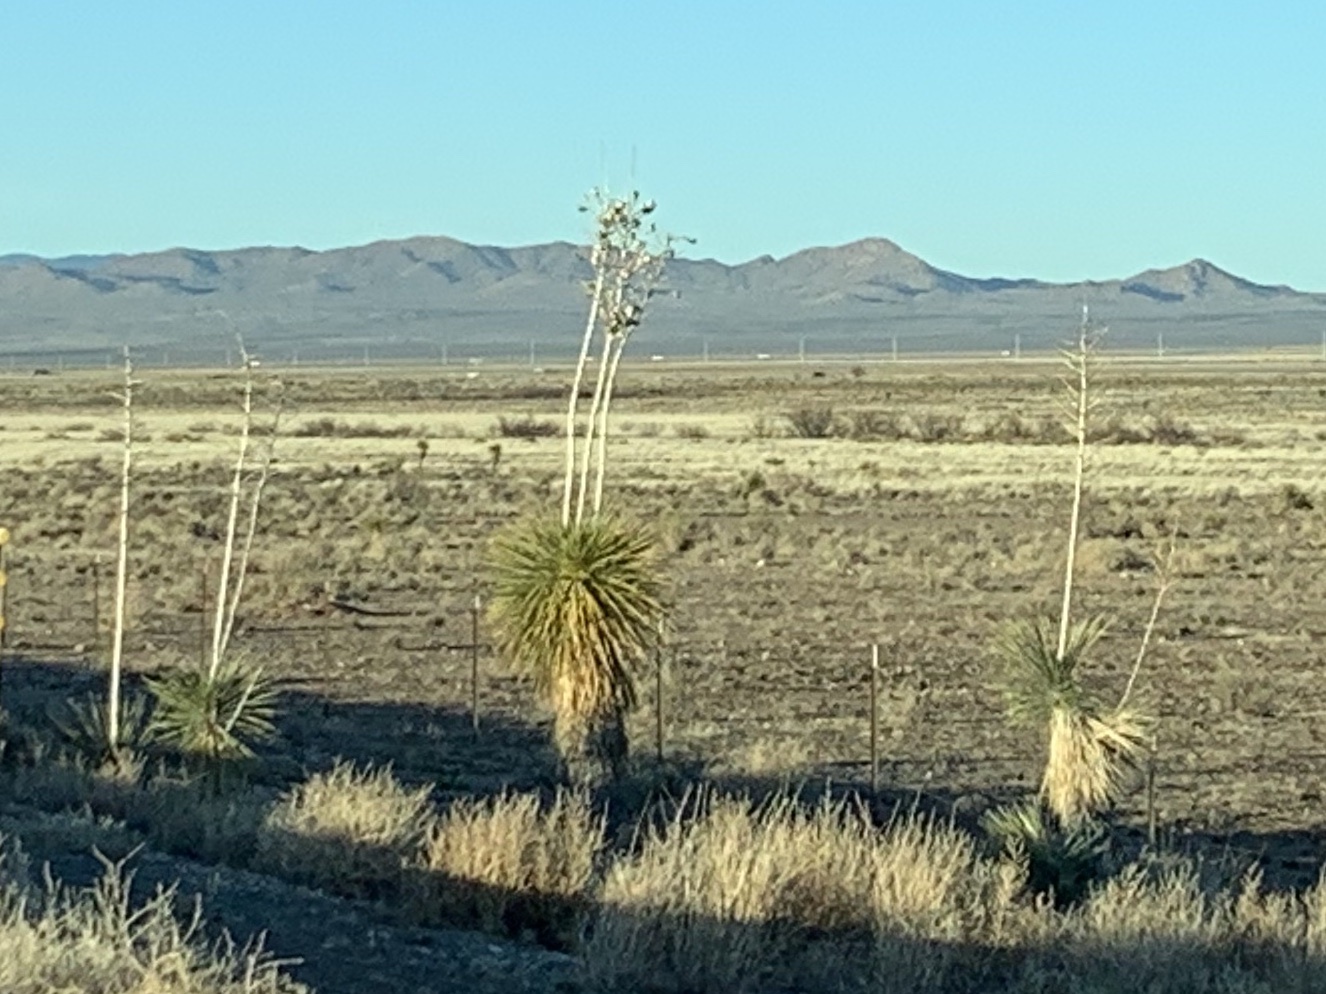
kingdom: Plantae
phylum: Tracheophyta
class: Liliopsida
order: Asparagales
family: Asparagaceae
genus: Yucca
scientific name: Yucca elata
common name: Palmella
